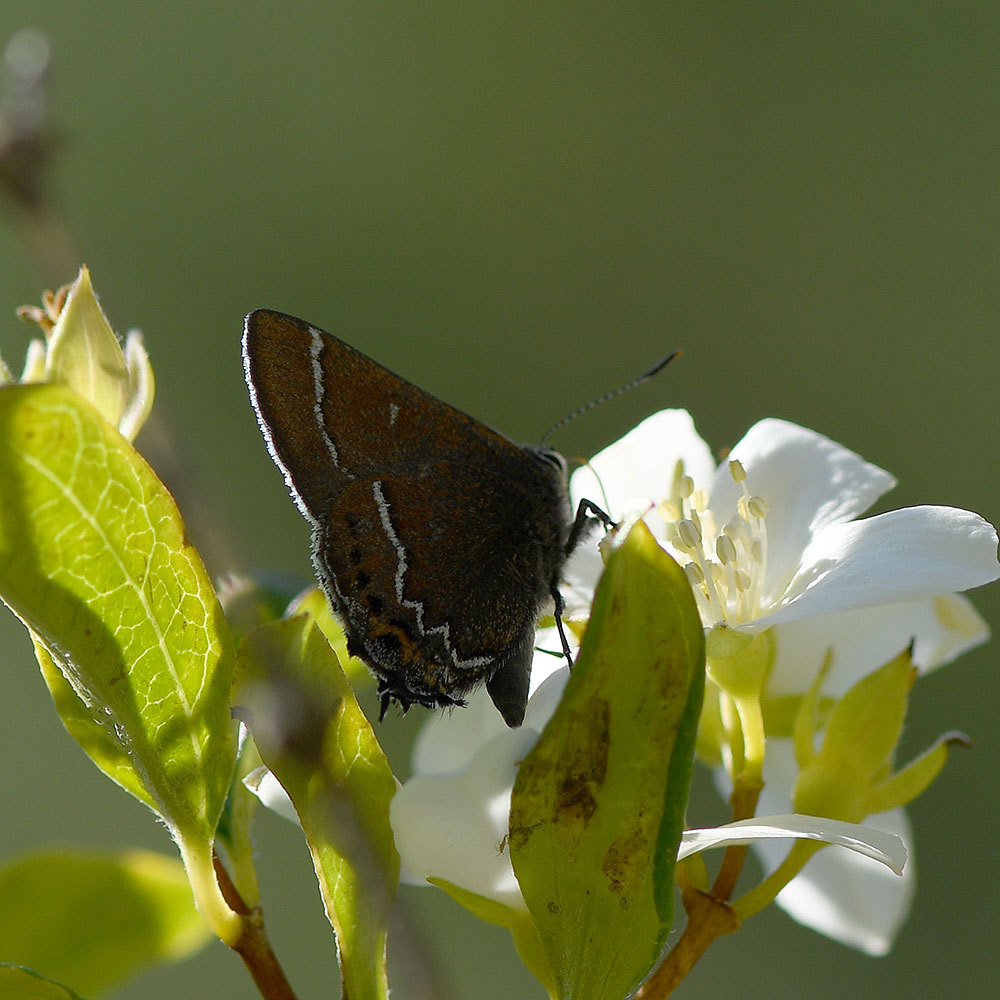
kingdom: Animalia
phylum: Arthropoda
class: Insecta
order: Lepidoptera
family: Lycaenidae
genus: Mitoura
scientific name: Mitoura spinetorum
